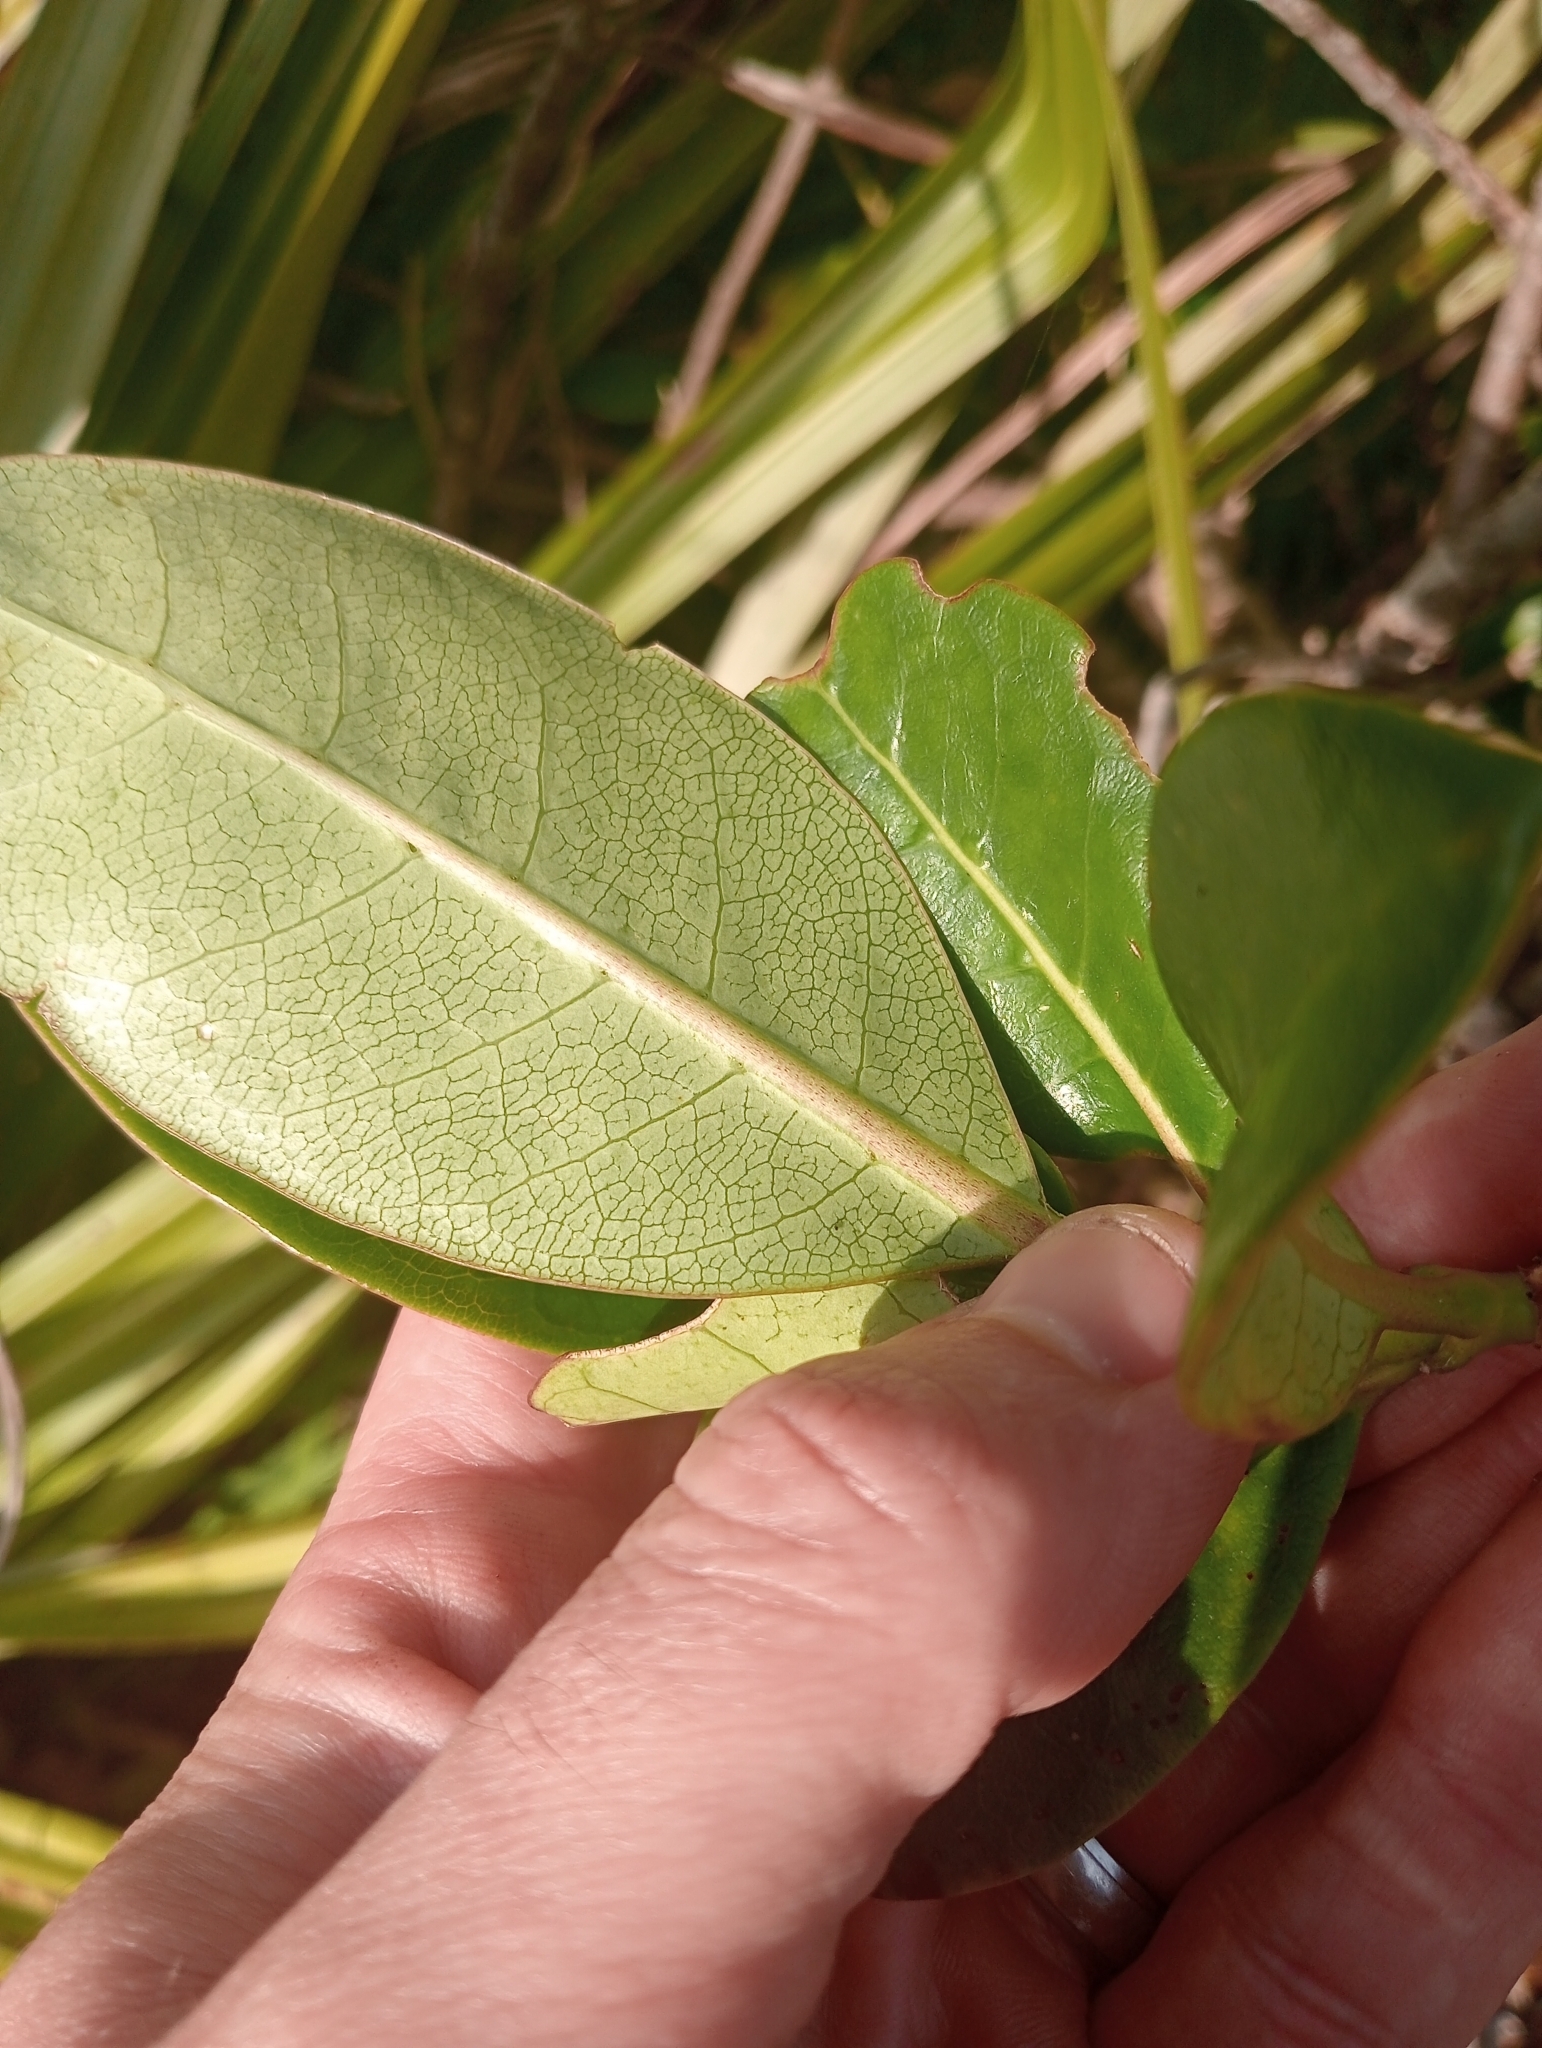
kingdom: Plantae
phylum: Tracheophyta
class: Magnoliopsida
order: Gentianales
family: Rubiaceae
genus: Coprosma
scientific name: Coprosma lucida
